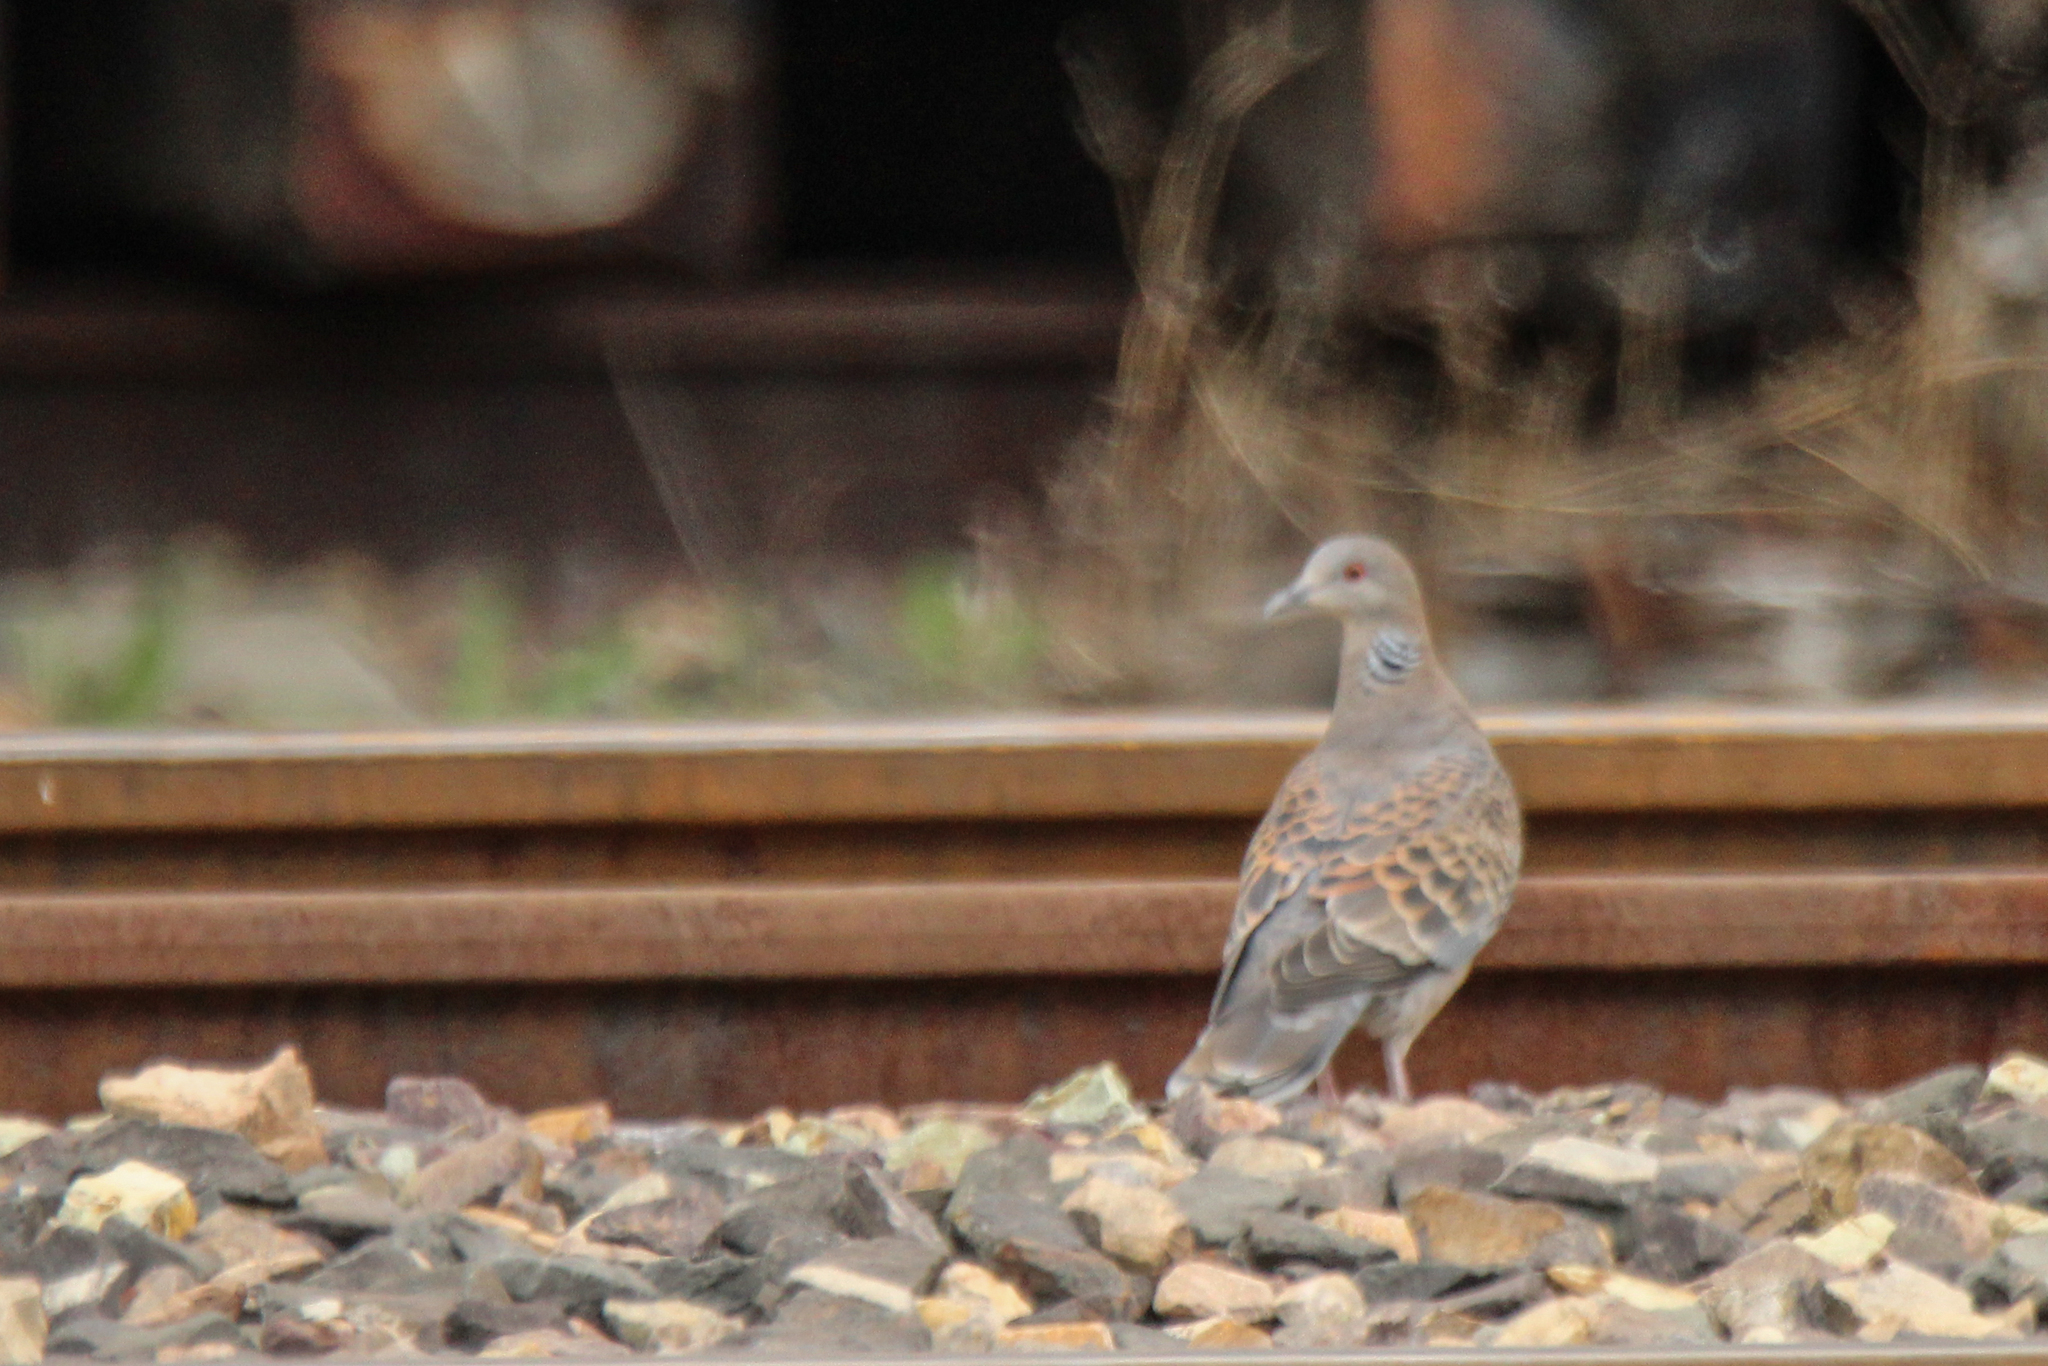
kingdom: Animalia
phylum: Chordata
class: Aves
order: Columbiformes
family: Columbidae
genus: Streptopelia
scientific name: Streptopelia orientalis
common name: Oriental turtle dove
